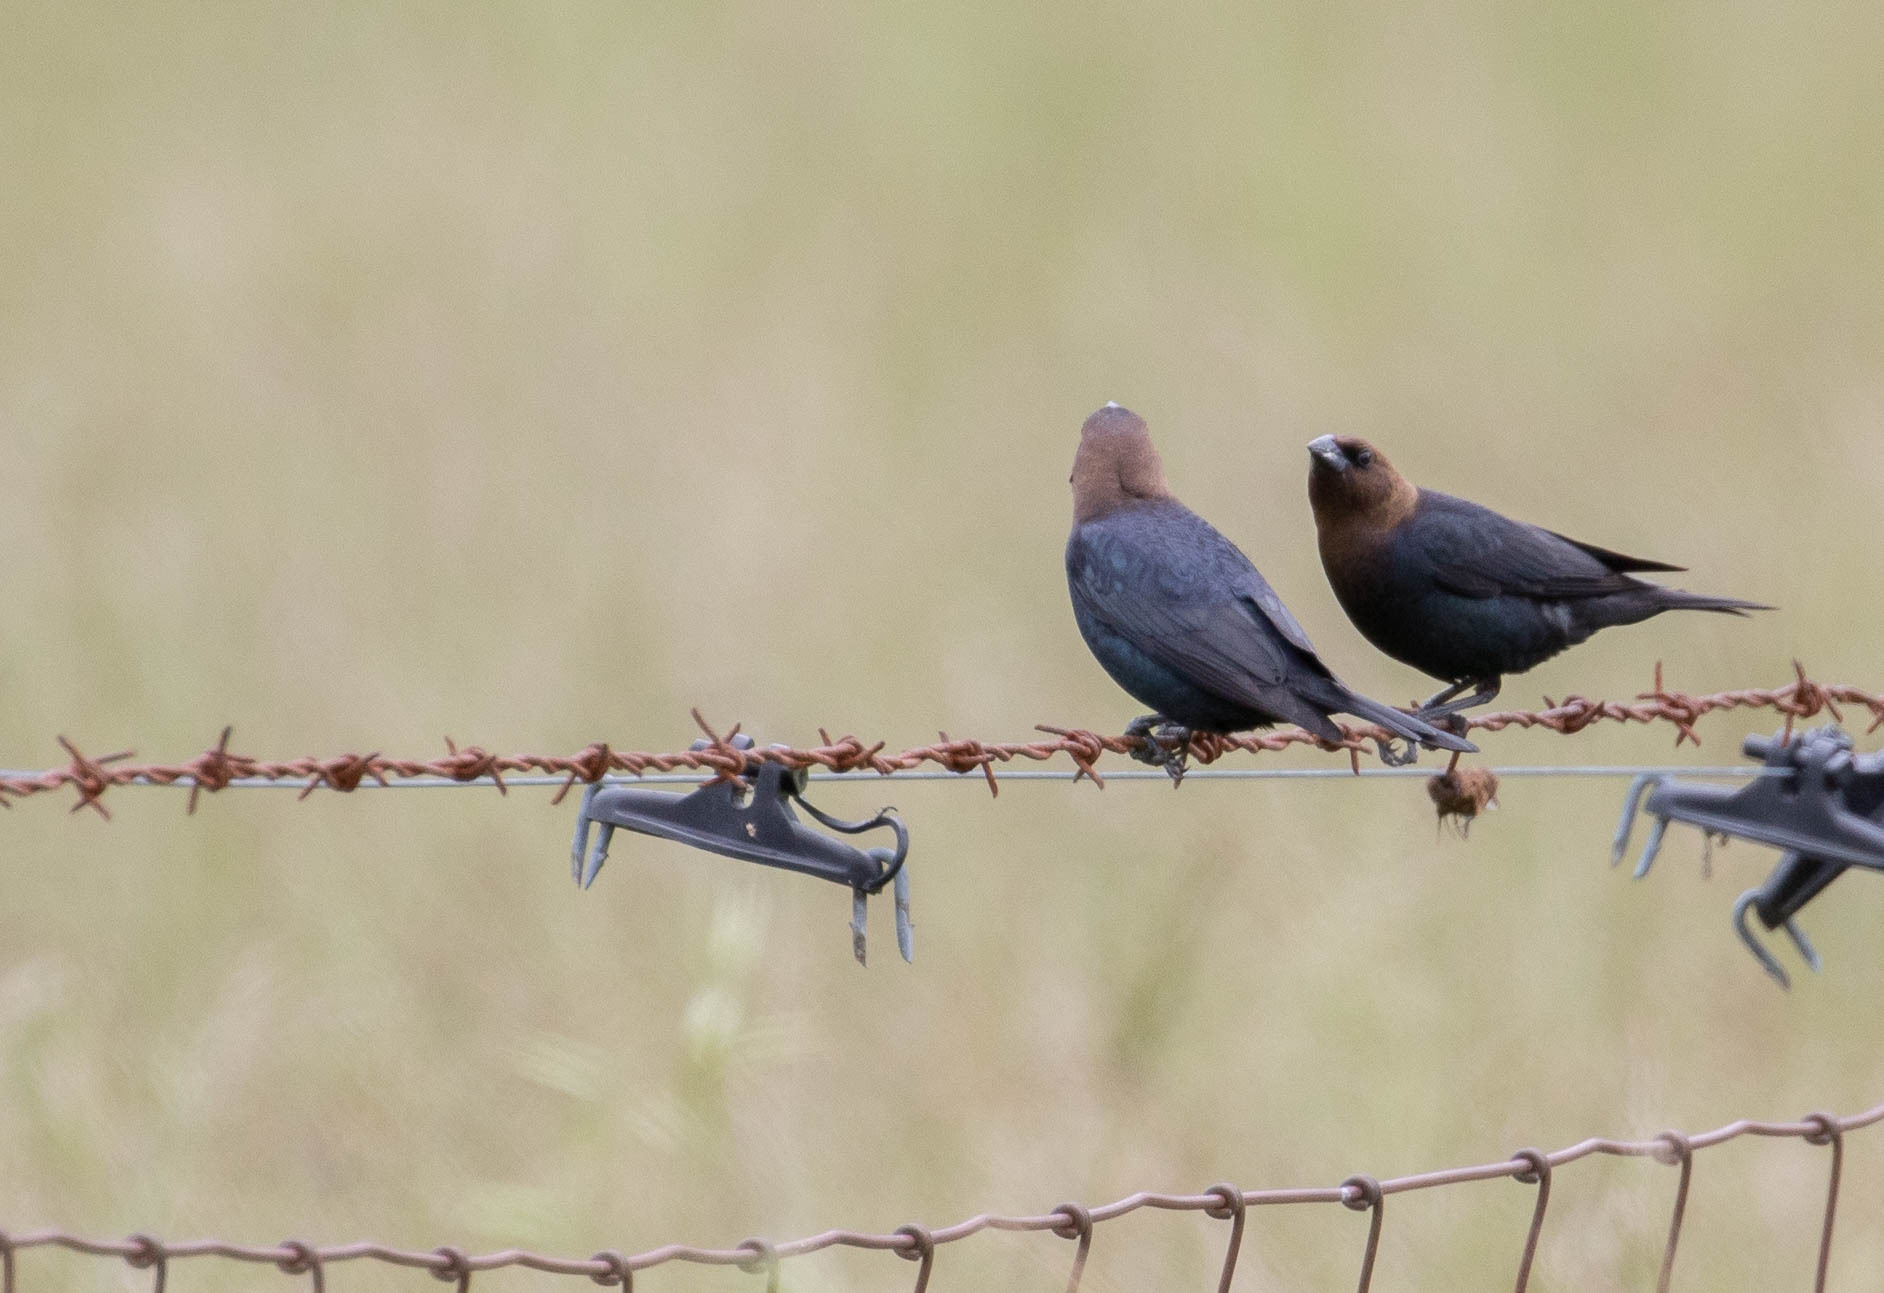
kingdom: Animalia
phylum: Chordata
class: Aves
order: Passeriformes
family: Icteridae
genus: Molothrus
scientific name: Molothrus ater
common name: Brown-headed cowbird
